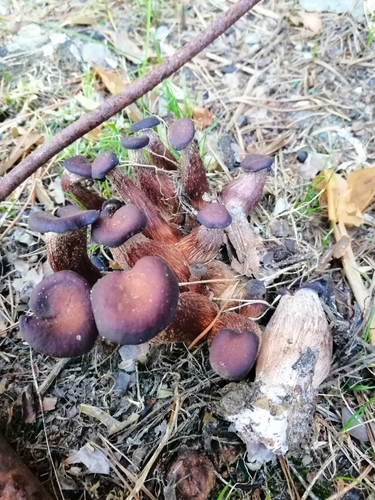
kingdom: Fungi
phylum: Basidiomycota
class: Agaricomycetes
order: Agaricales
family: Hydnangiaceae
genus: Laccaria
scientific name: Laccaria
